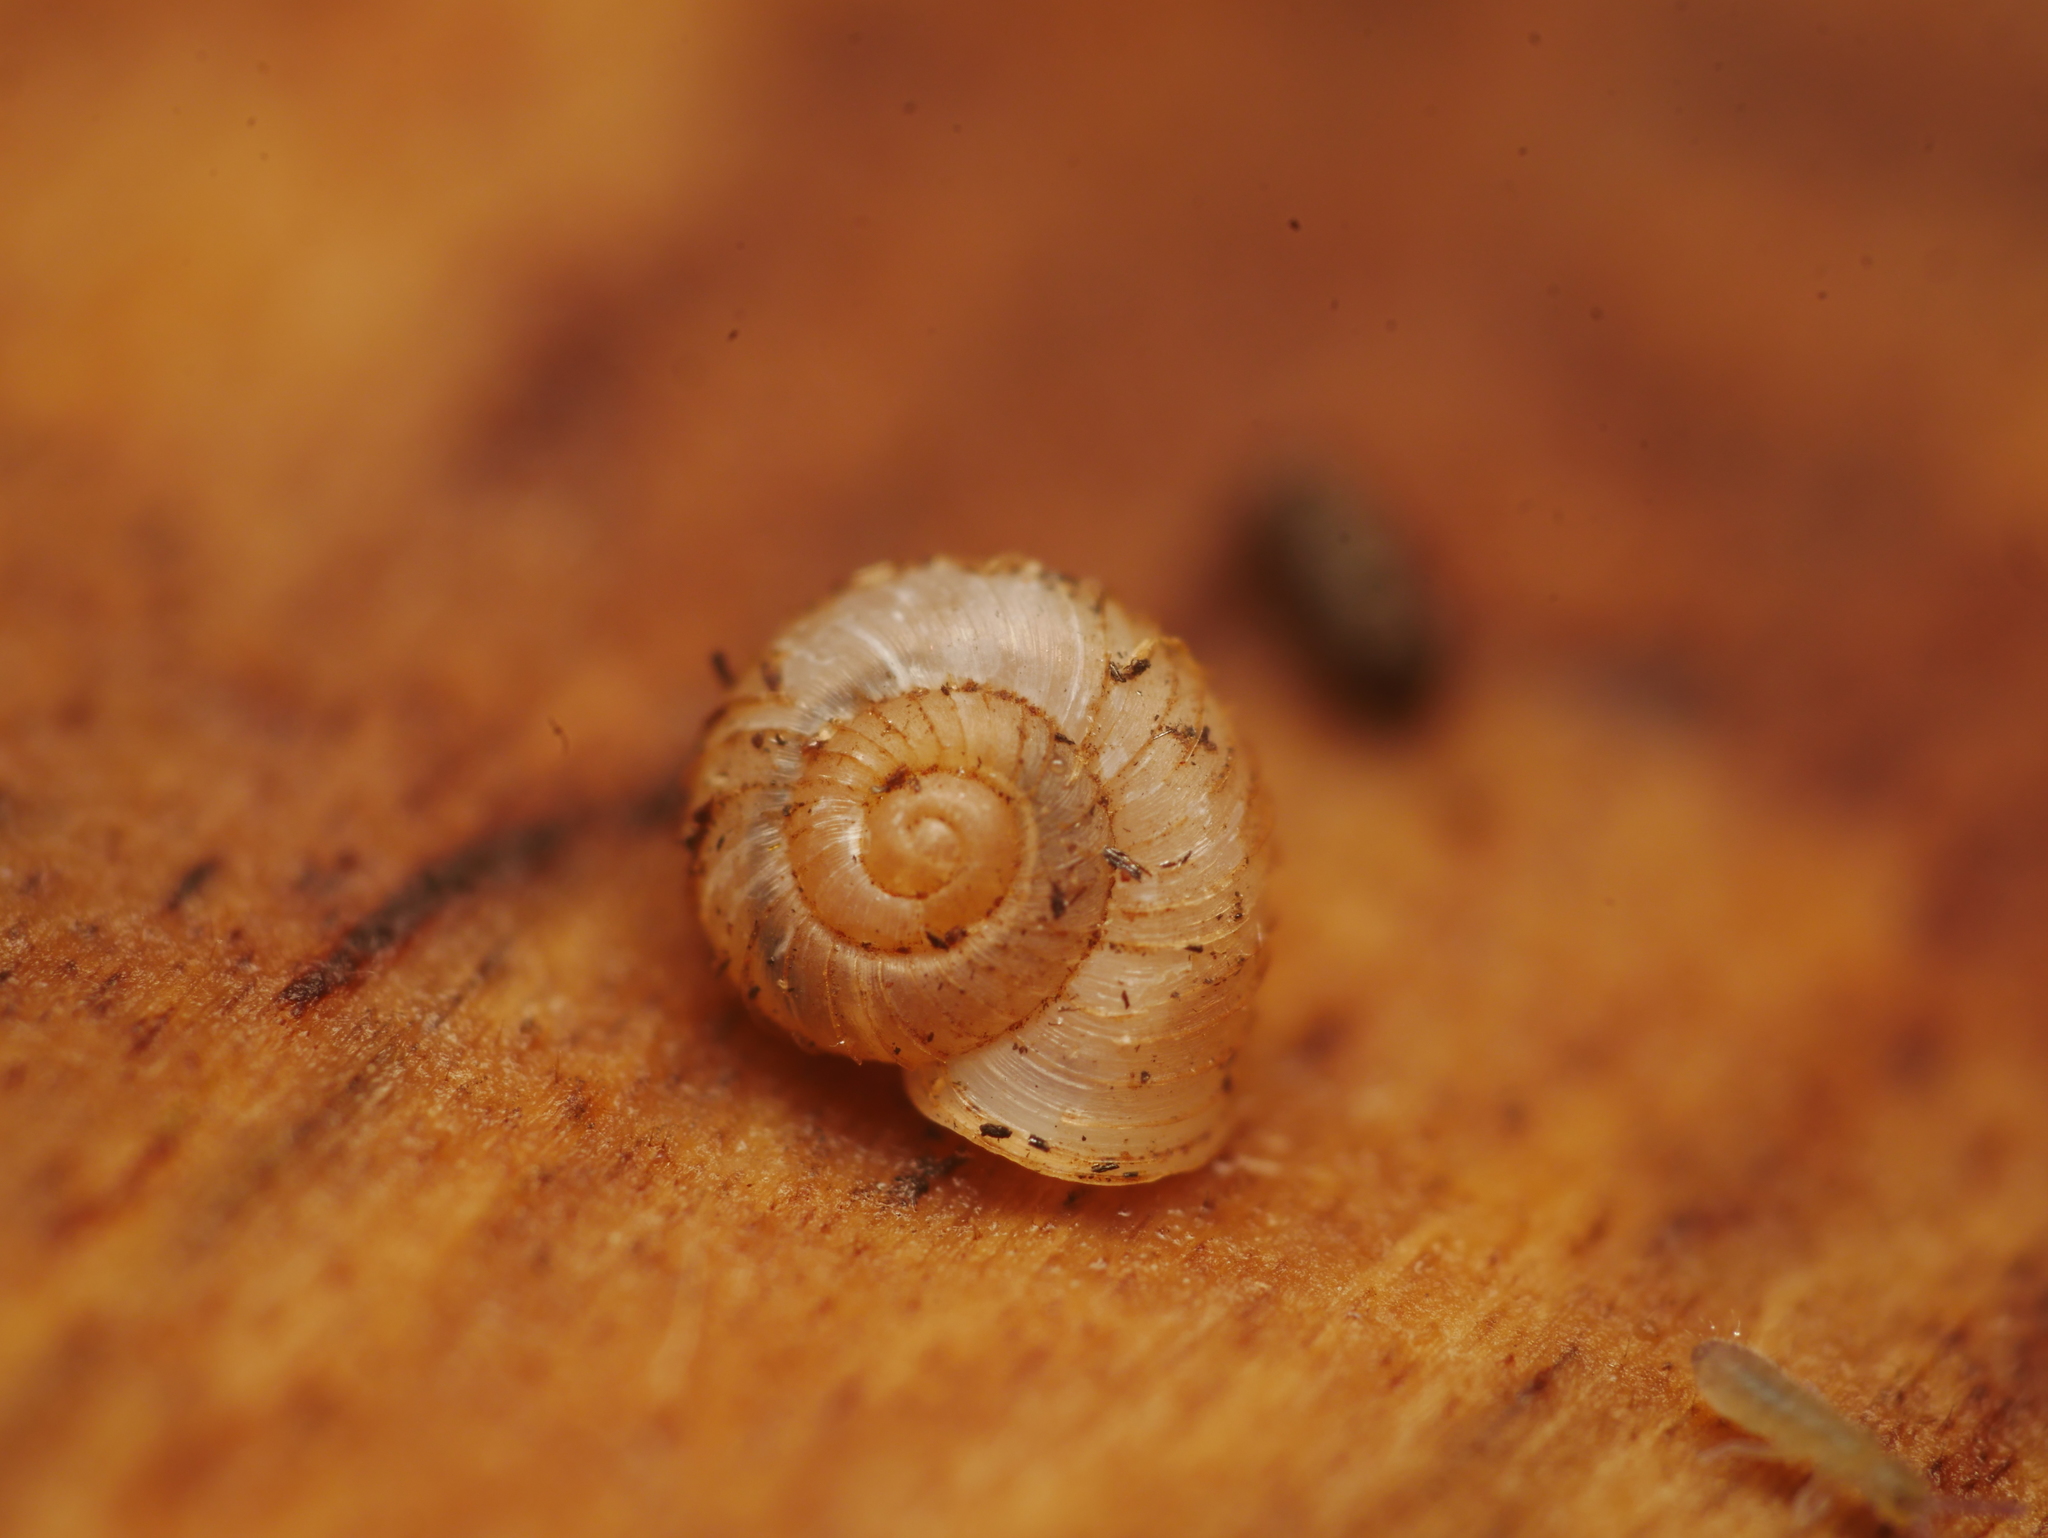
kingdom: Animalia
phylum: Mollusca
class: Gastropoda
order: Stylommatophora
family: Valloniidae
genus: Vallonia
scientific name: Vallonia costata
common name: Ribbed grass snail
